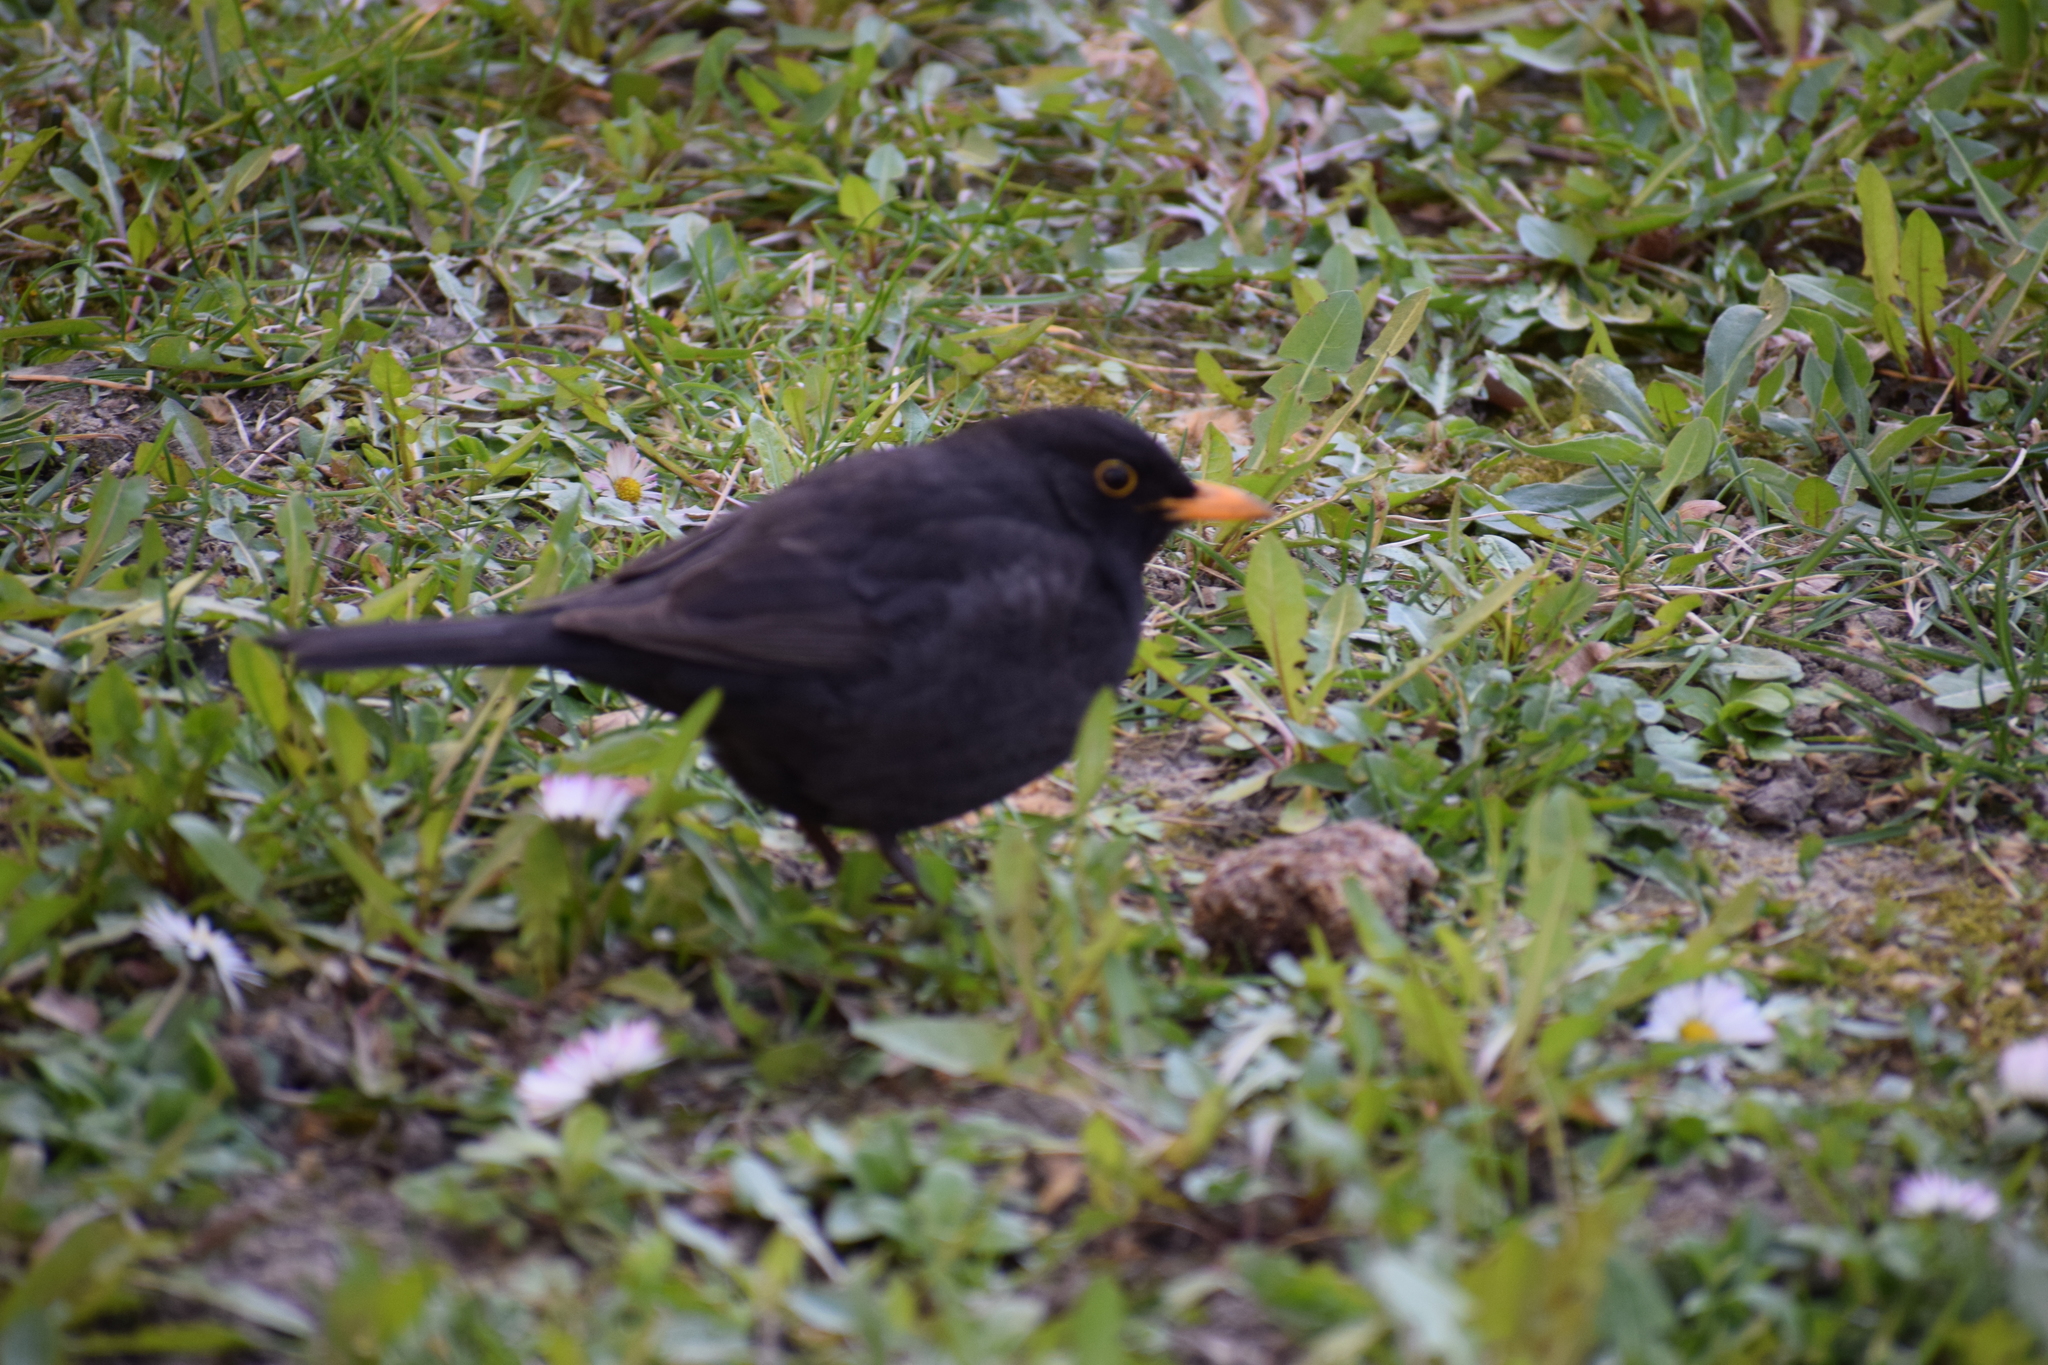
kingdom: Animalia
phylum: Chordata
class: Aves
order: Passeriformes
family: Turdidae
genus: Turdus
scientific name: Turdus merula
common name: Common blackbird
